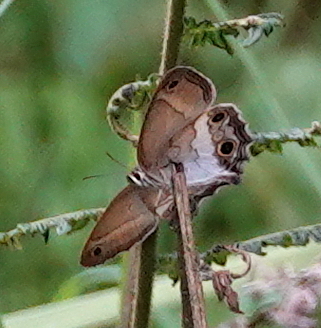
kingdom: Animalia
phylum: Arthropoda
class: Insecta
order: Lepidoptera
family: Nymphalidae
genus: Graphita
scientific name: Graphita griphe
